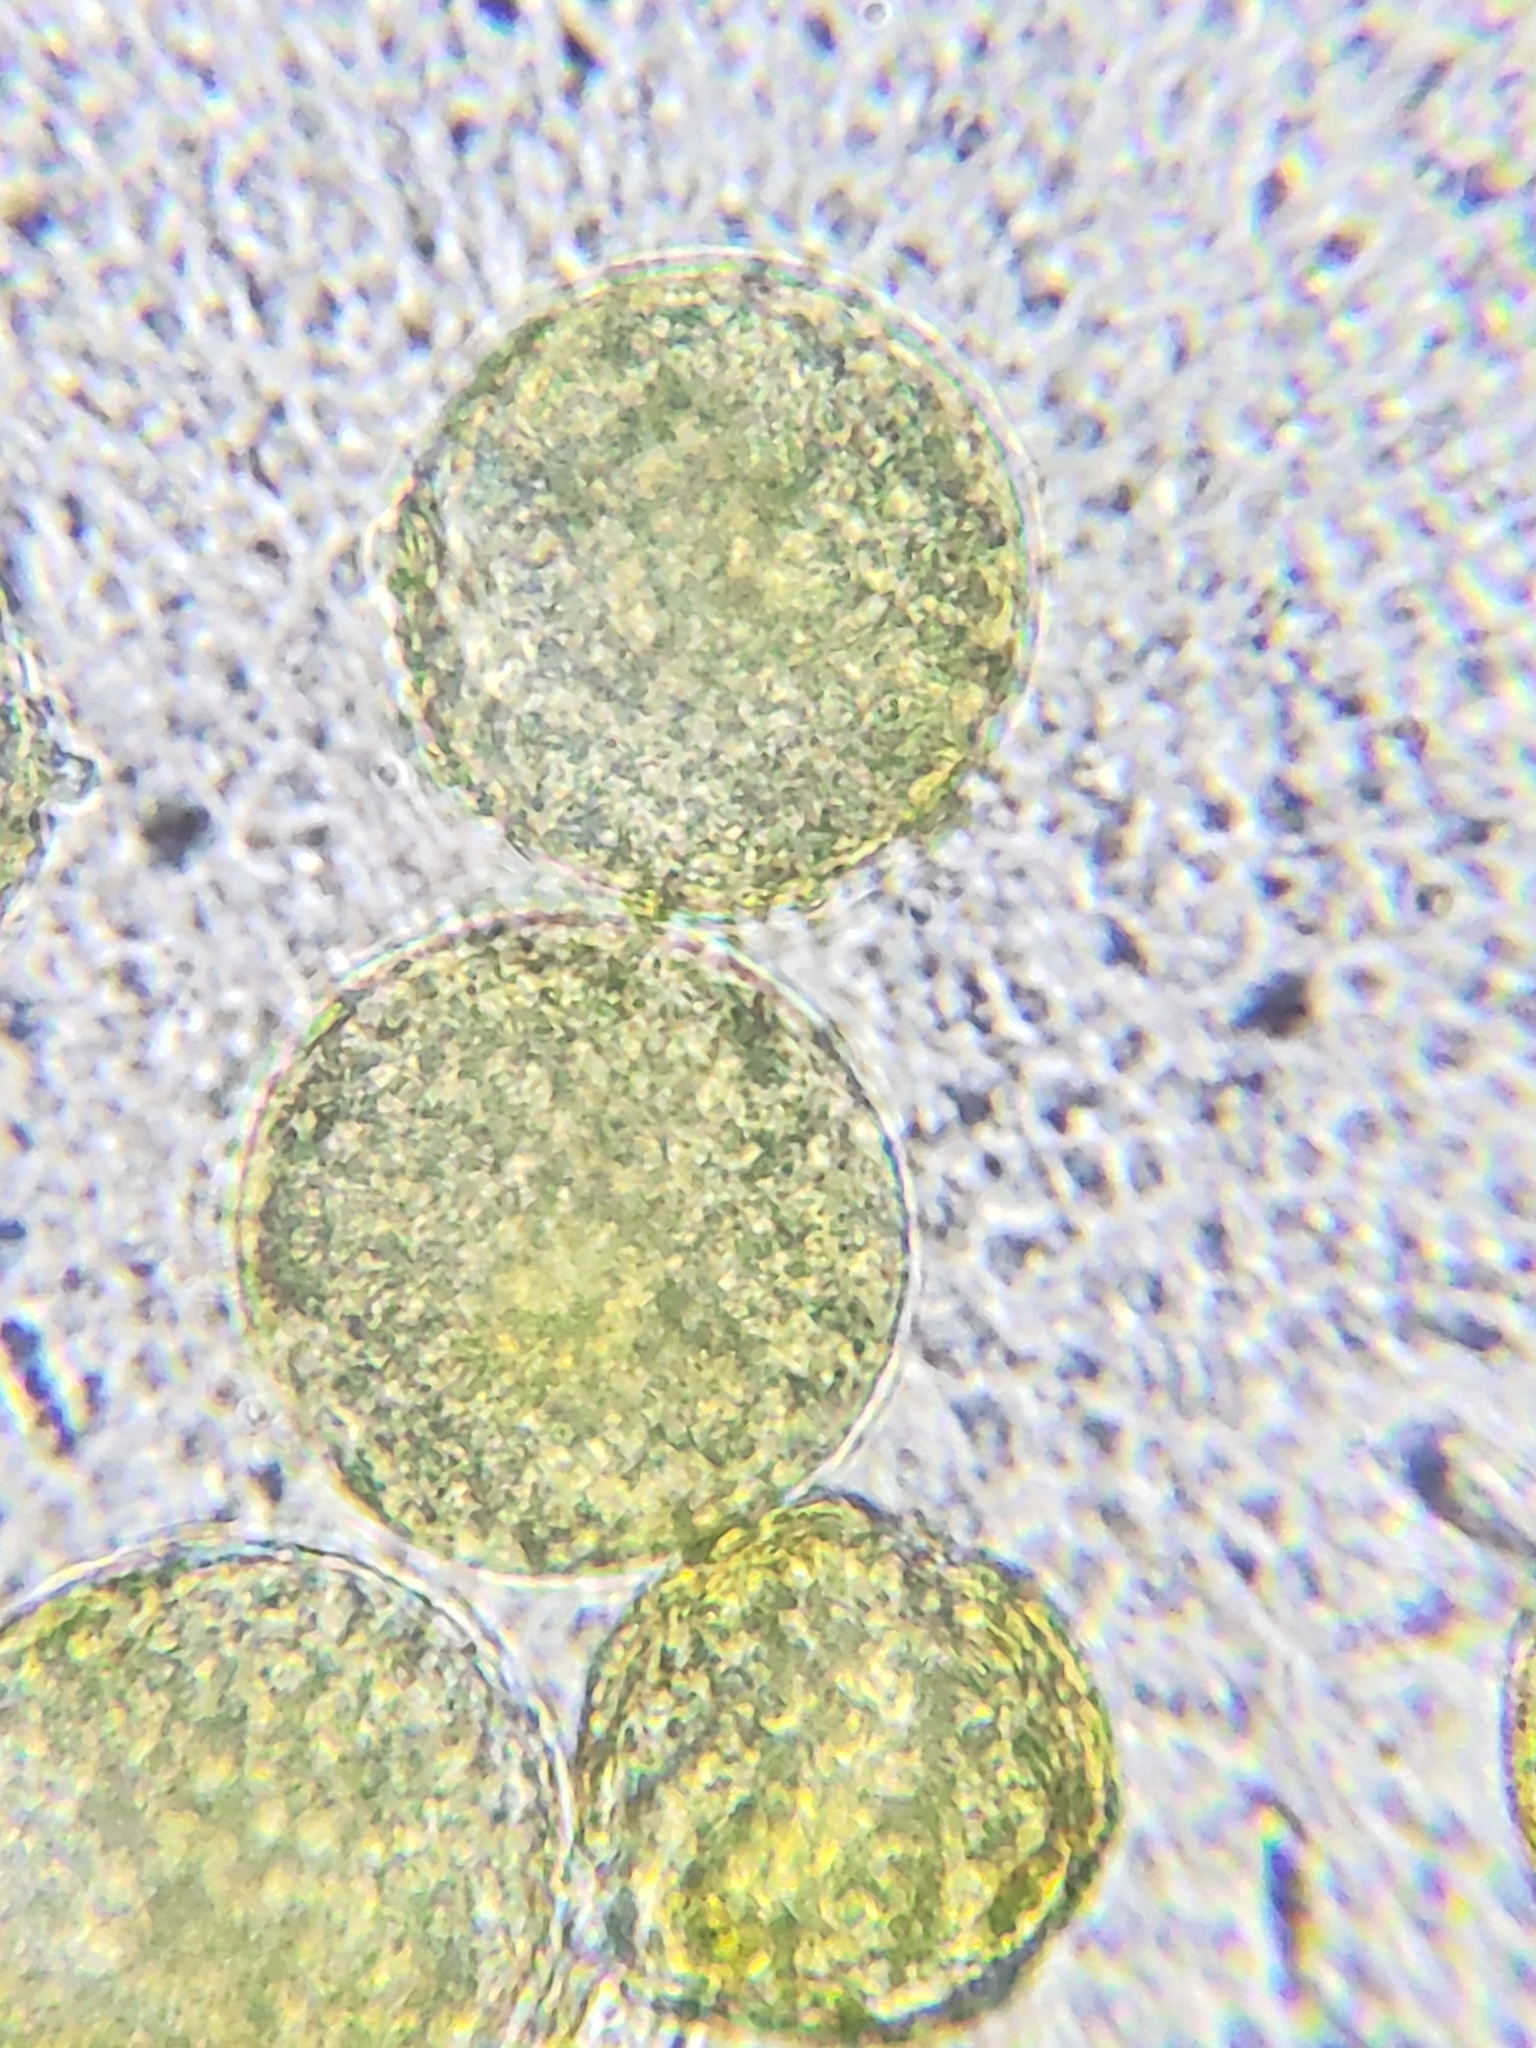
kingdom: Plantae
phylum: Tracheophyta
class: Magnoliopsida
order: Ranunculales
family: Ranunculaceae
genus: Ficaria
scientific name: Ficaria verna
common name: Lesser celandine
